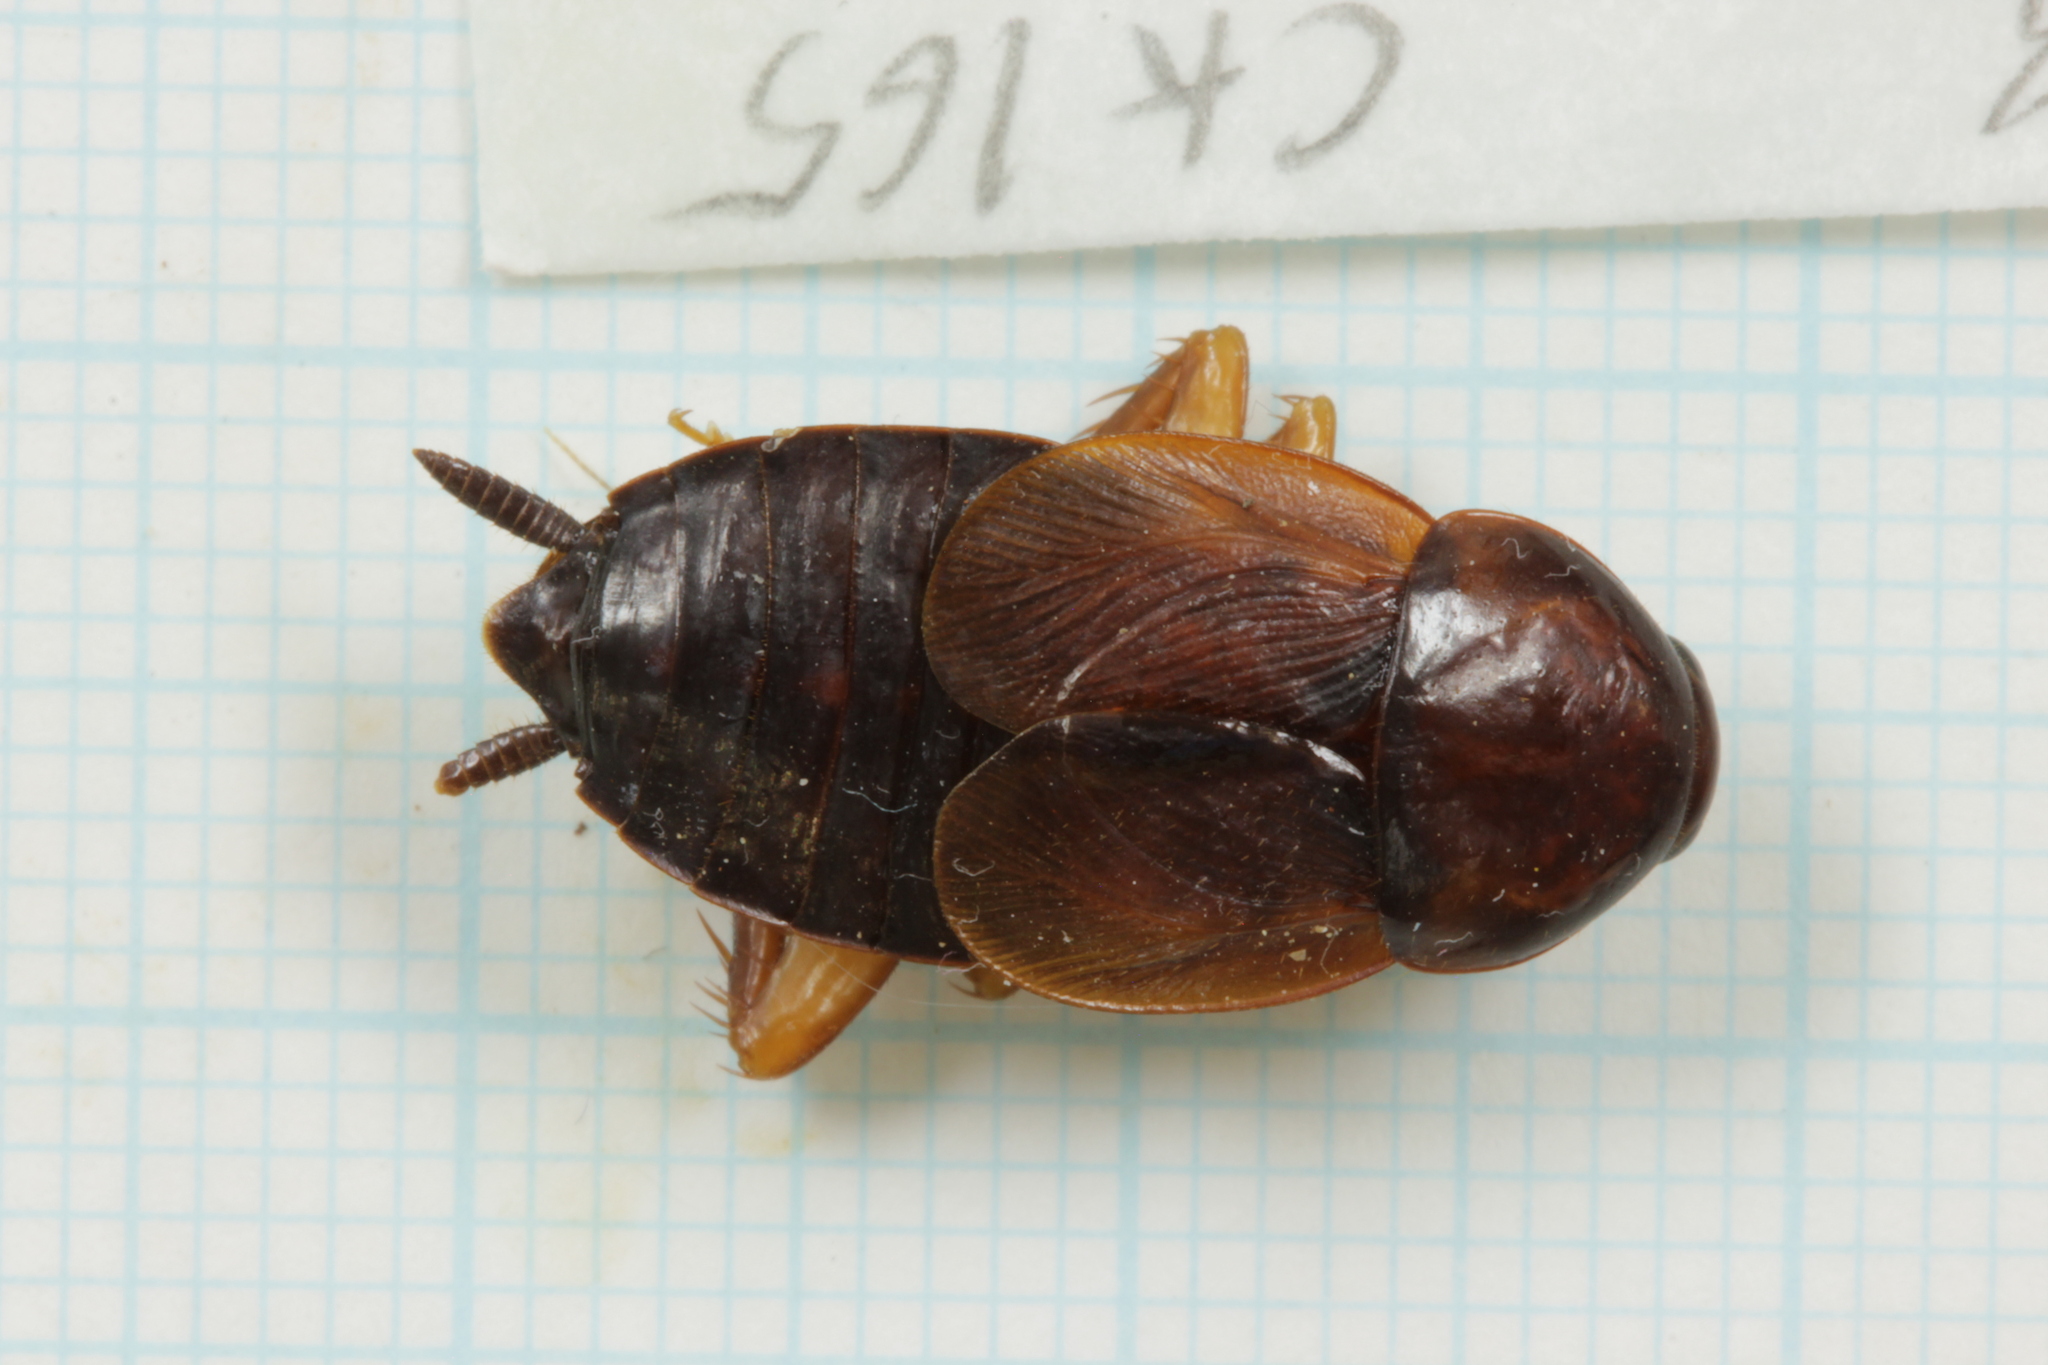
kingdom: Animalia
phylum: Arthropoda
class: Insecta
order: Blattodea
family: Ectobiidae
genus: Paratemnopteryx
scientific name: Paratemnopteryx couloniana
